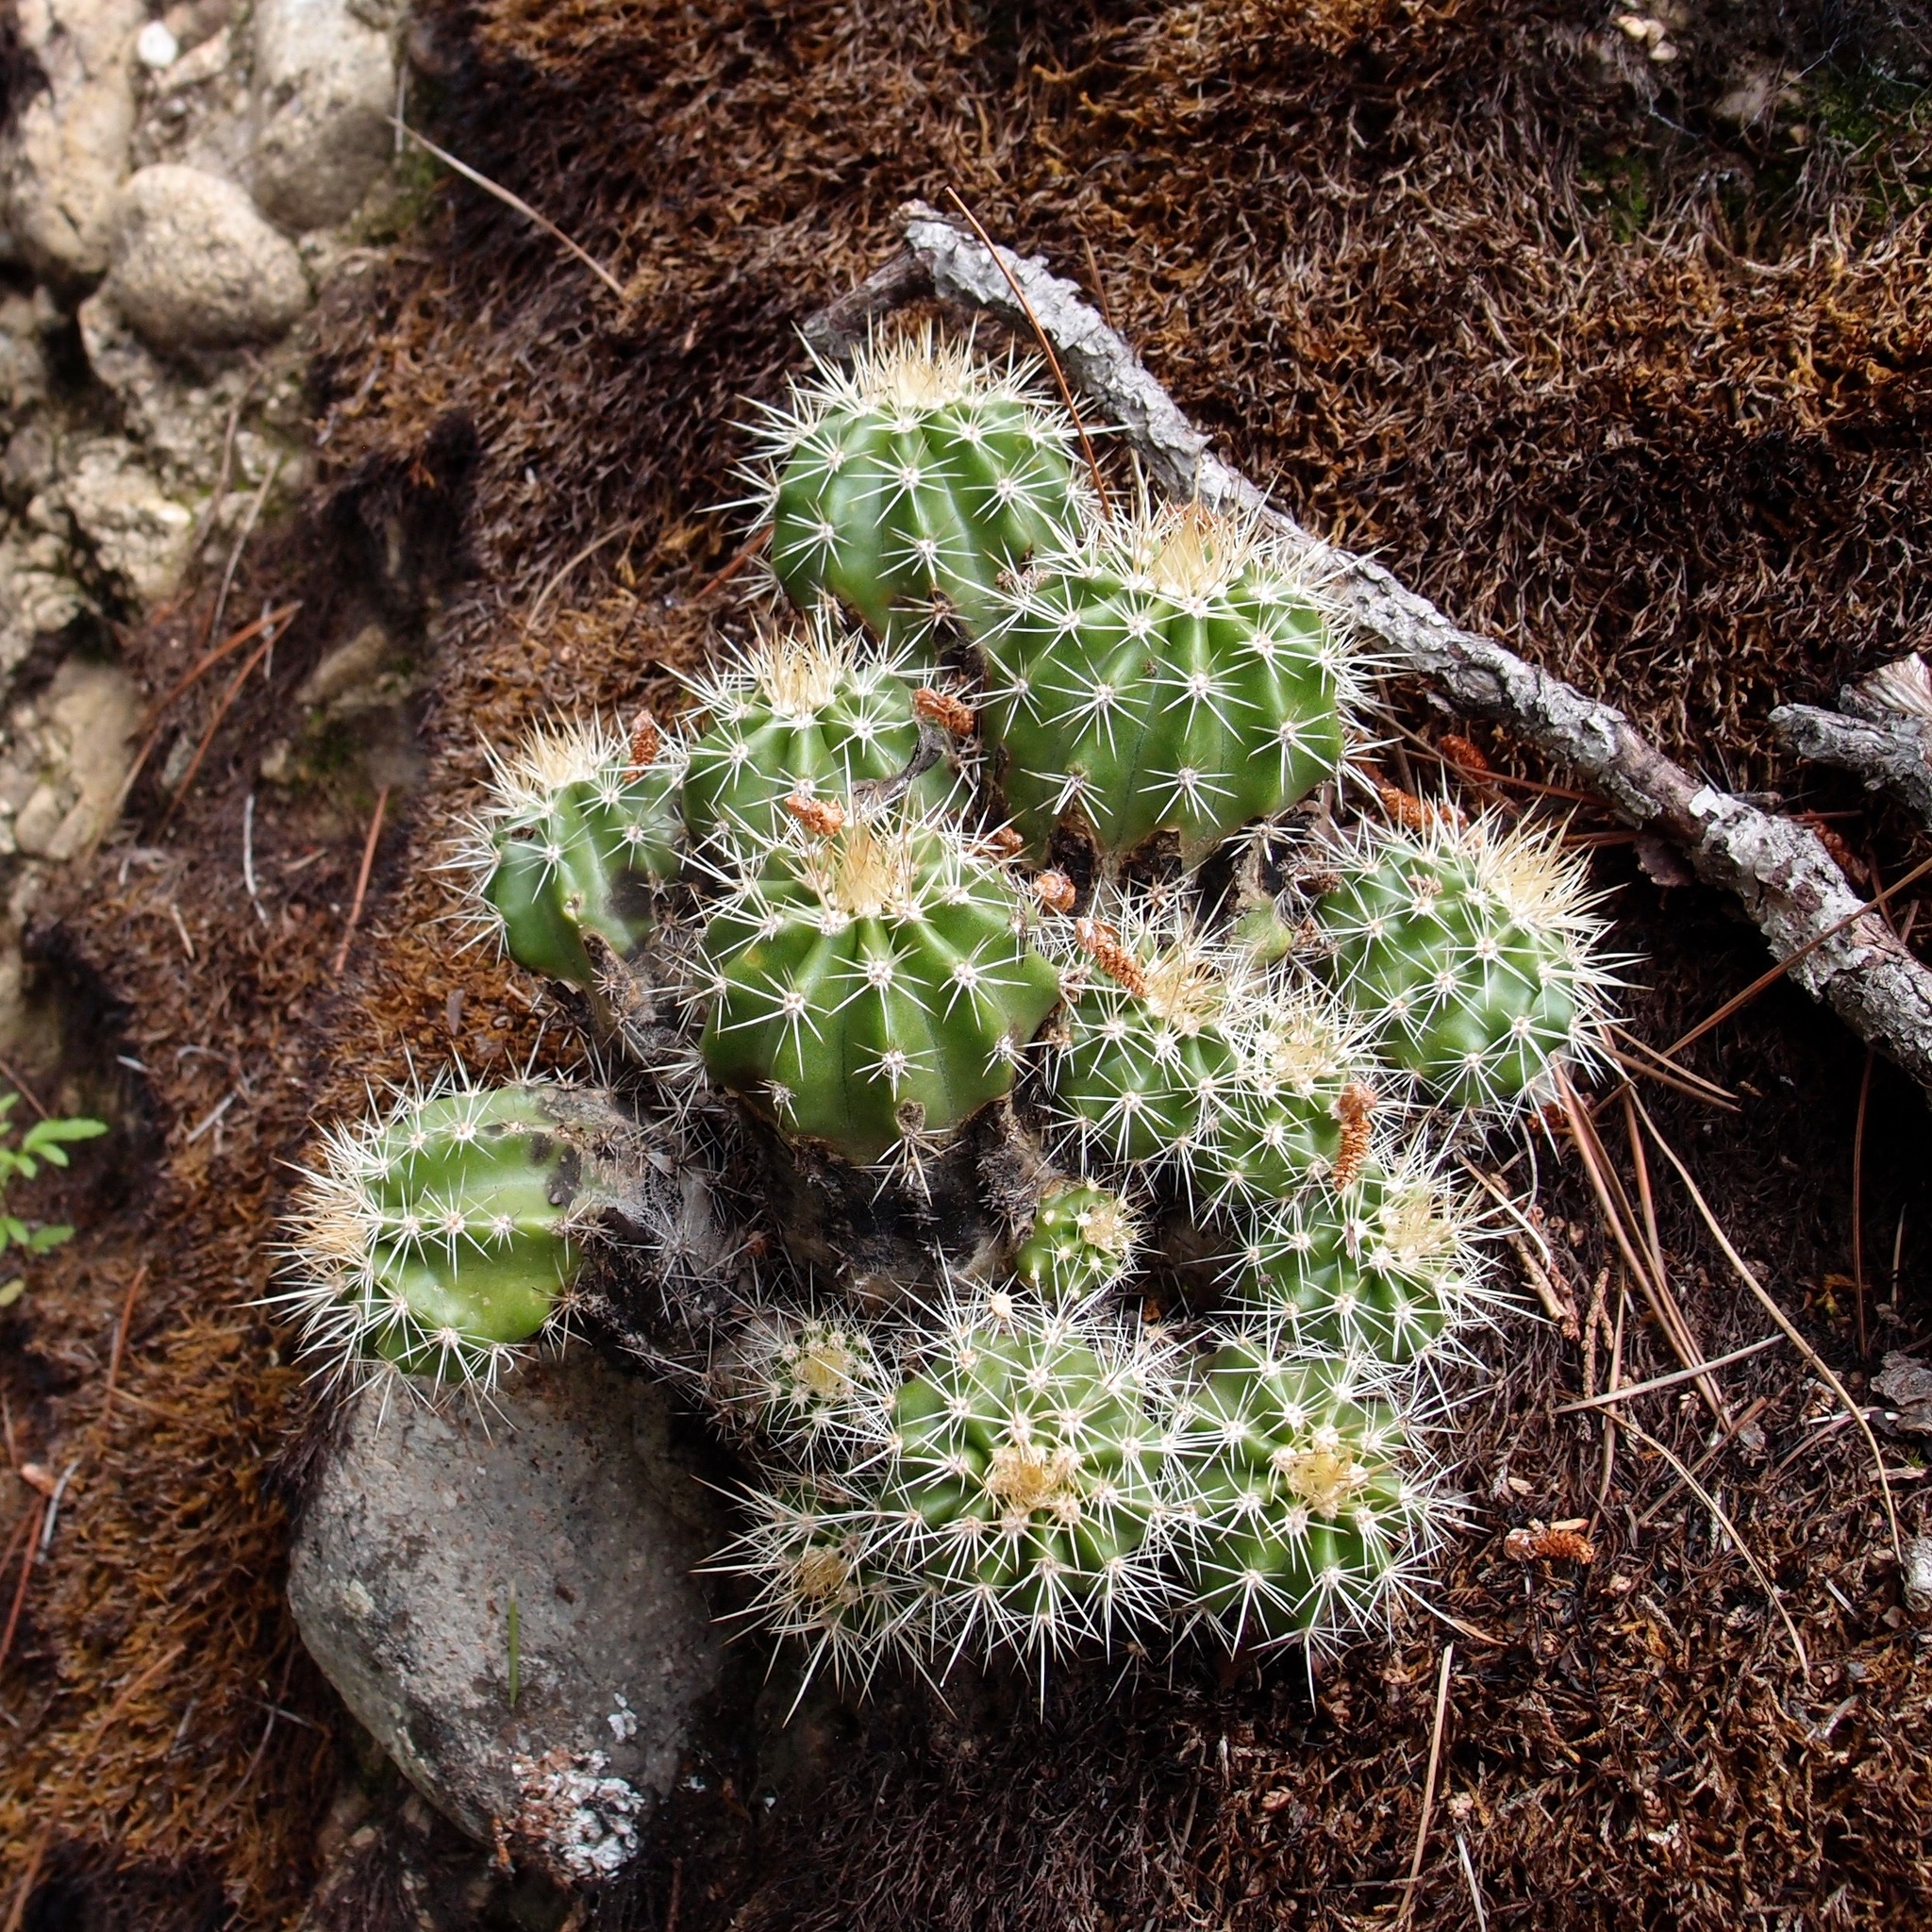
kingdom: Plantae
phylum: Tracheophyta
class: Magnoliopsida
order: Caryophyllales
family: Cactaceae
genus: Echinocereus
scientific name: Echinocereus coccineus
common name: Scarlet hedgehog cactus
